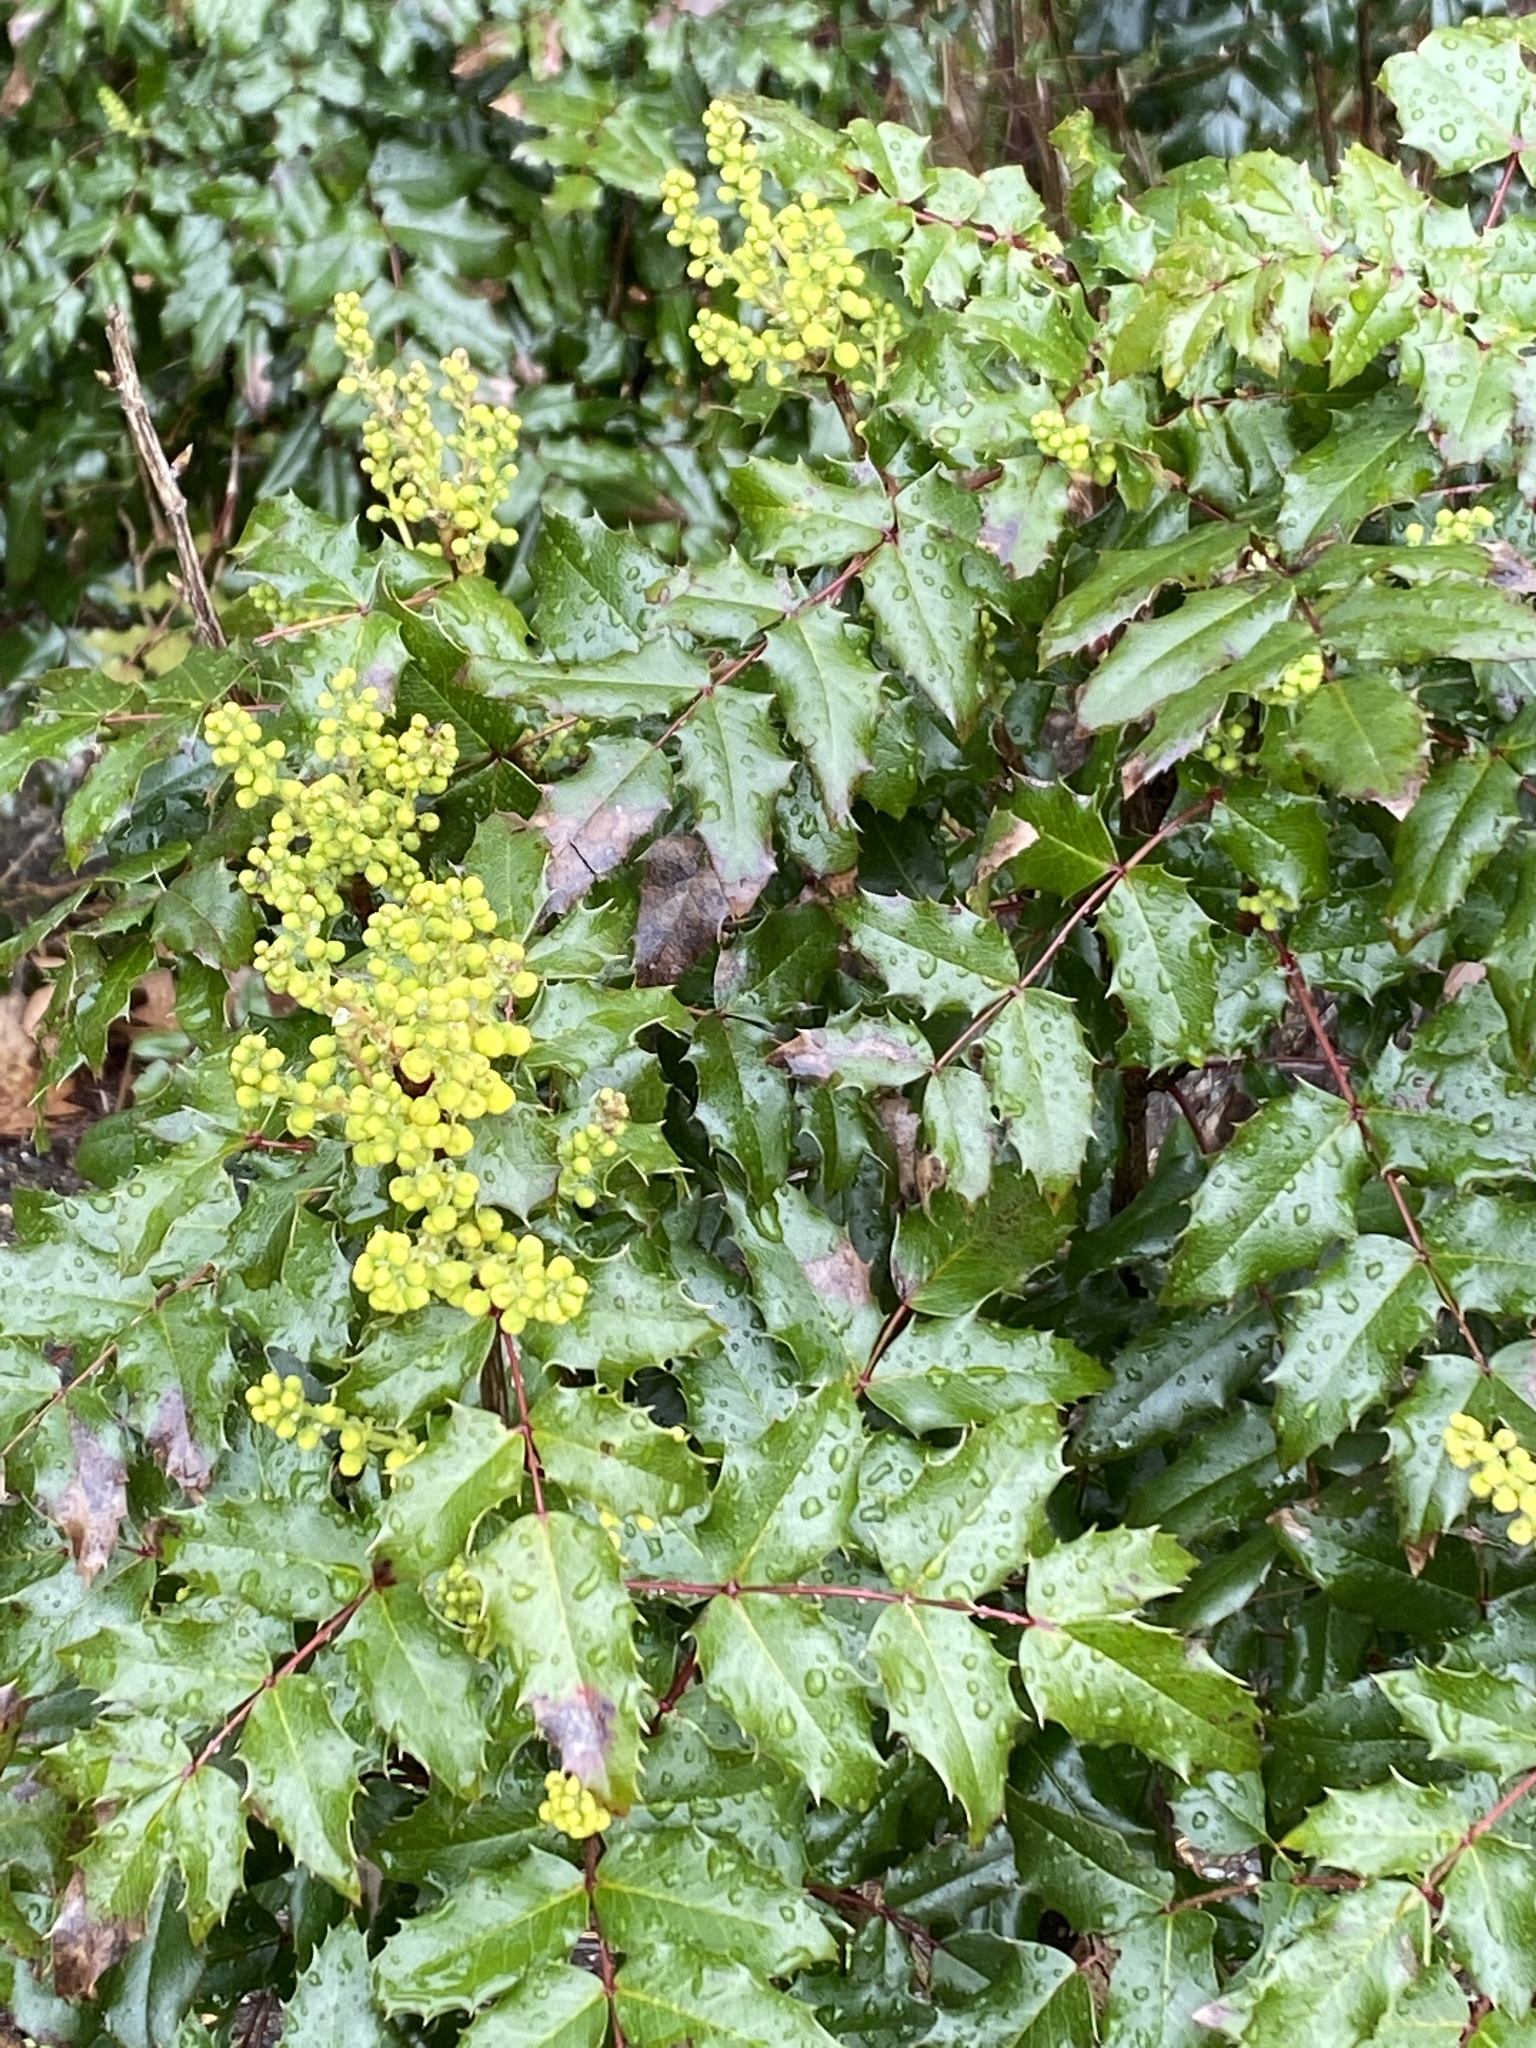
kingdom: Plantae
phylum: Tracheophyta
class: Magnoliopsida
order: Ranunculales
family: Berberidaceae
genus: Mahonia
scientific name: Mahonia aquifolium
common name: Oregon-grape
